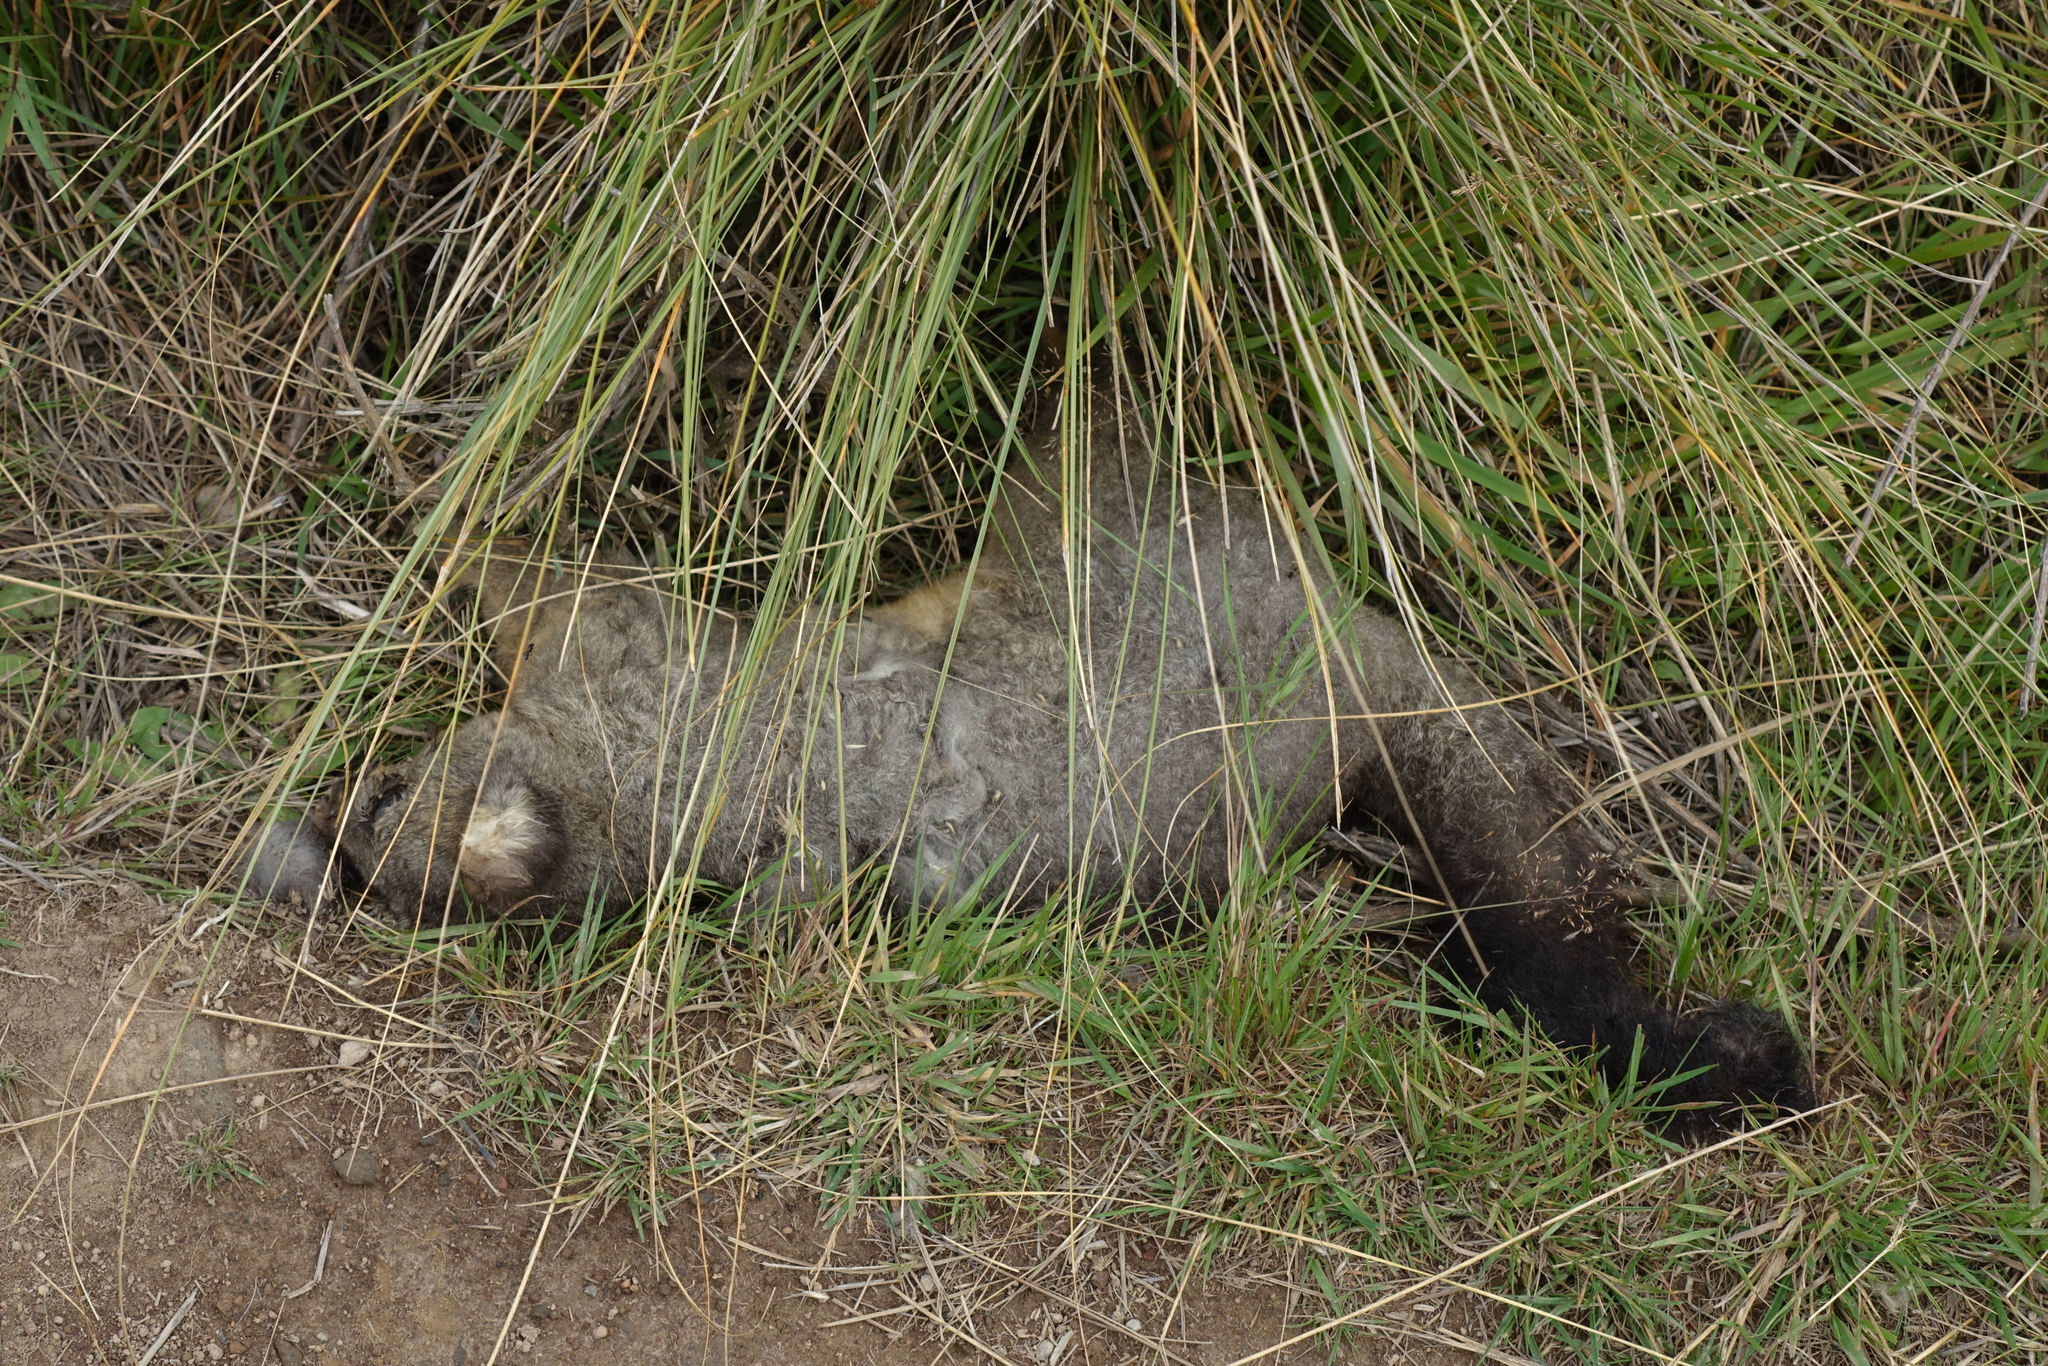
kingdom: Animalia
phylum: Chordata
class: Mammalia
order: Diprotodontia
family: Phalangeridae
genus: Trichosurus
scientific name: Trichosurus vulpecula
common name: Common brushtail
